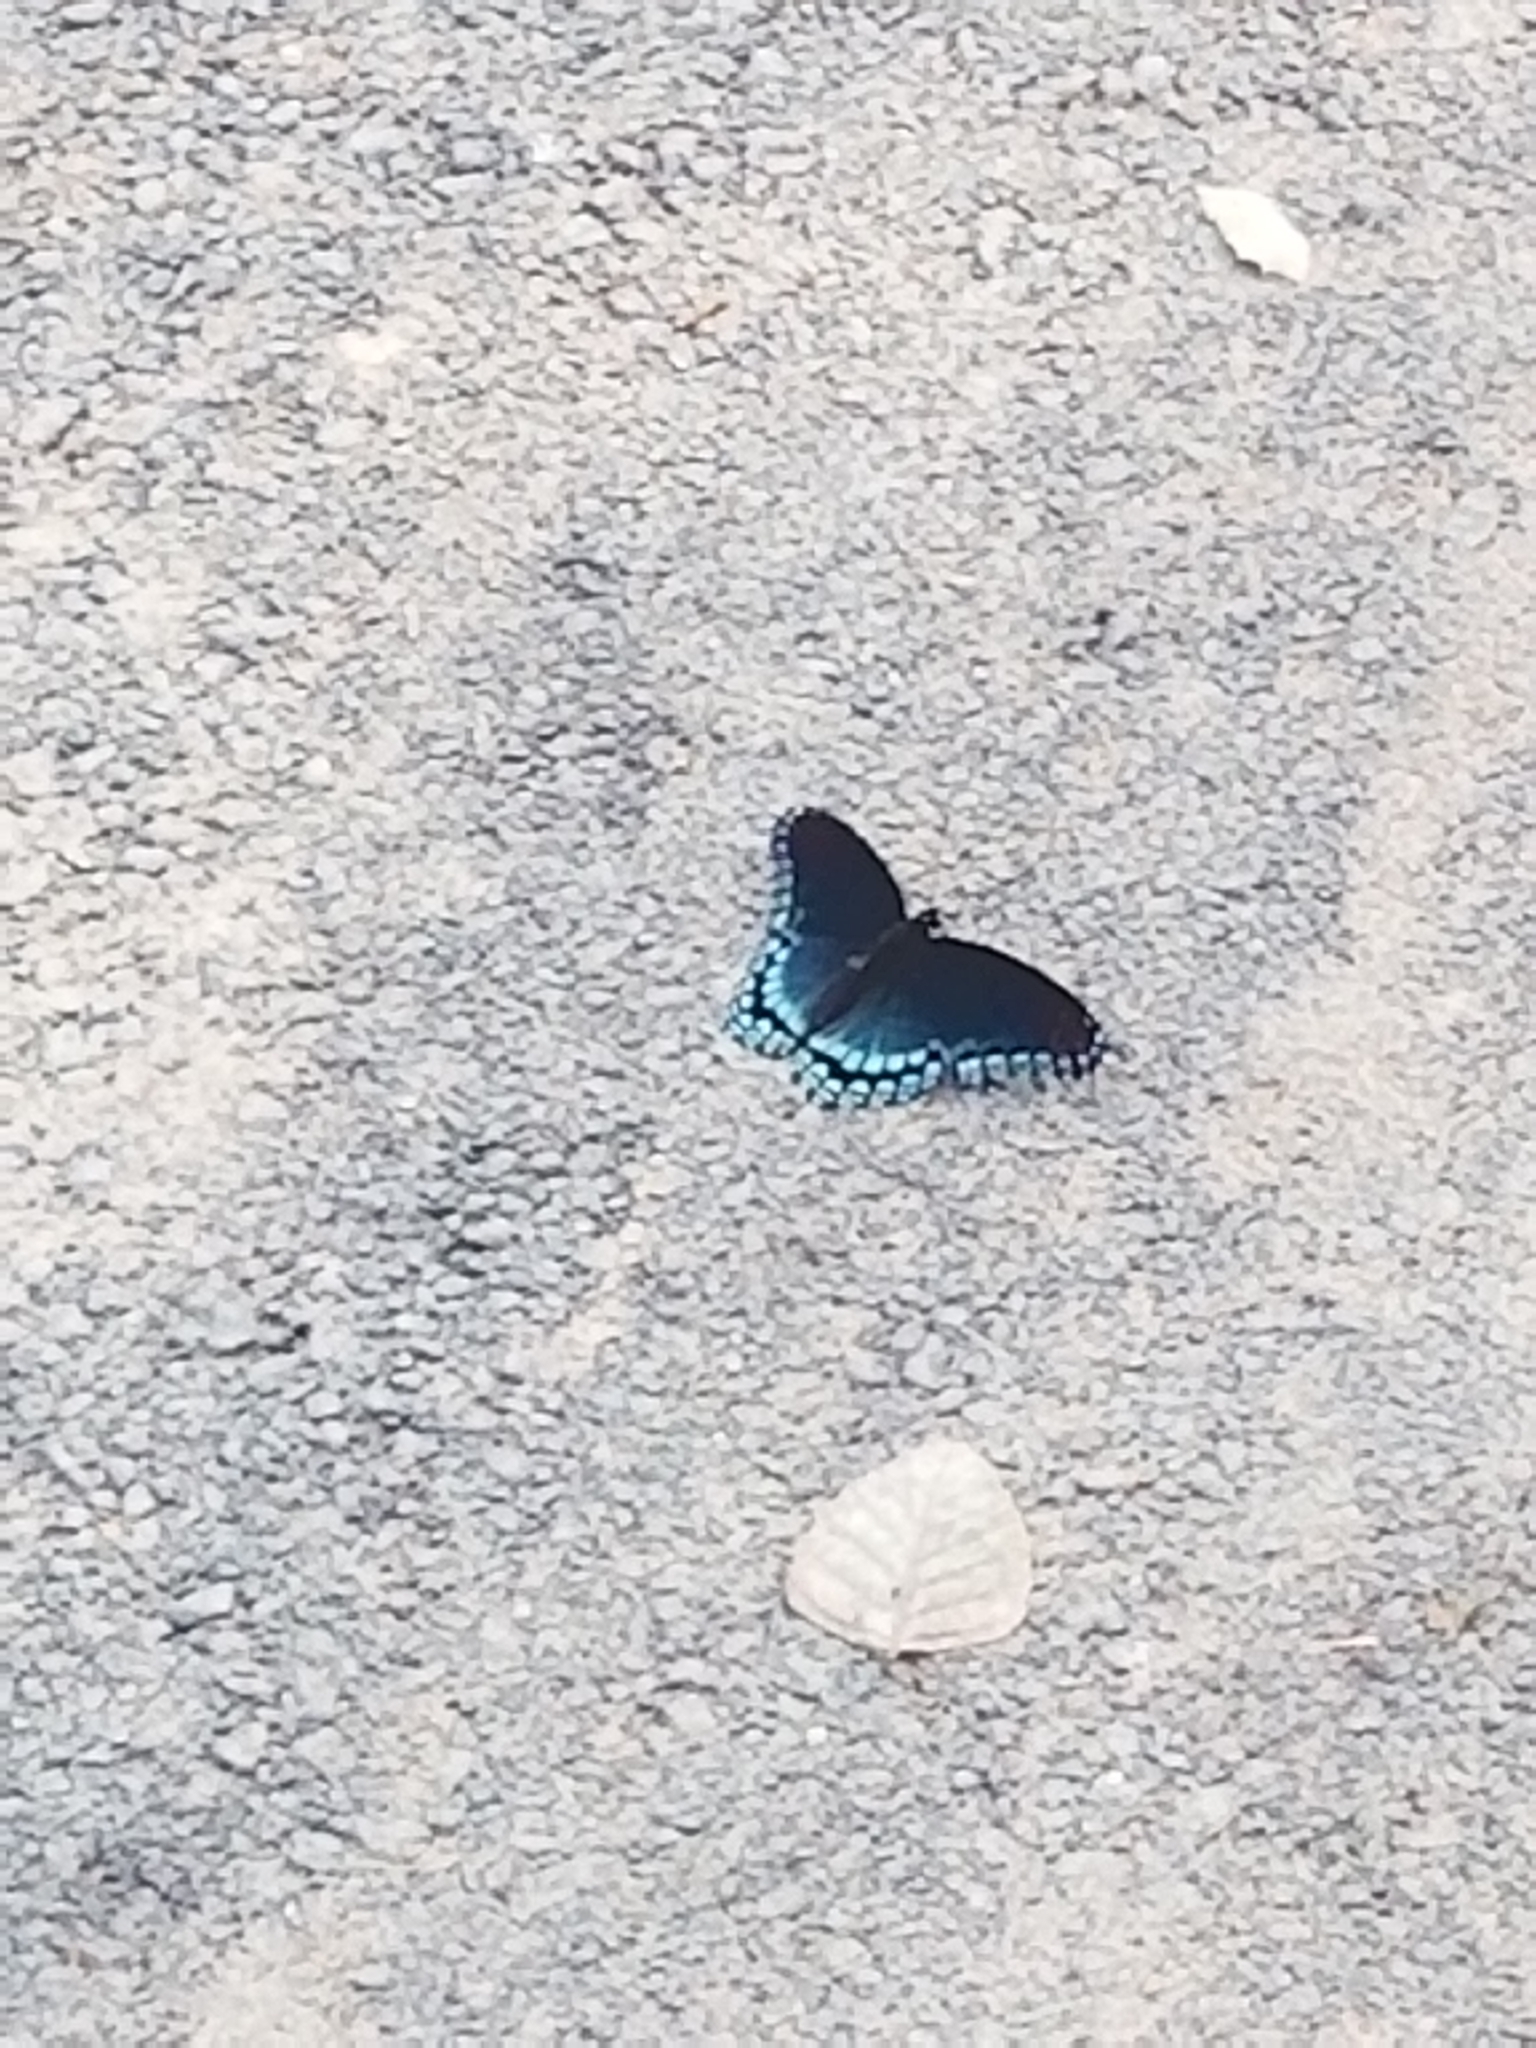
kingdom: Animalia
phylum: Arthropoda
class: Insecta
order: Lepidoptera
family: Nymphalidae
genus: Limenitis
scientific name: Limenitis arthemis
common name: Red-spotted admiral
